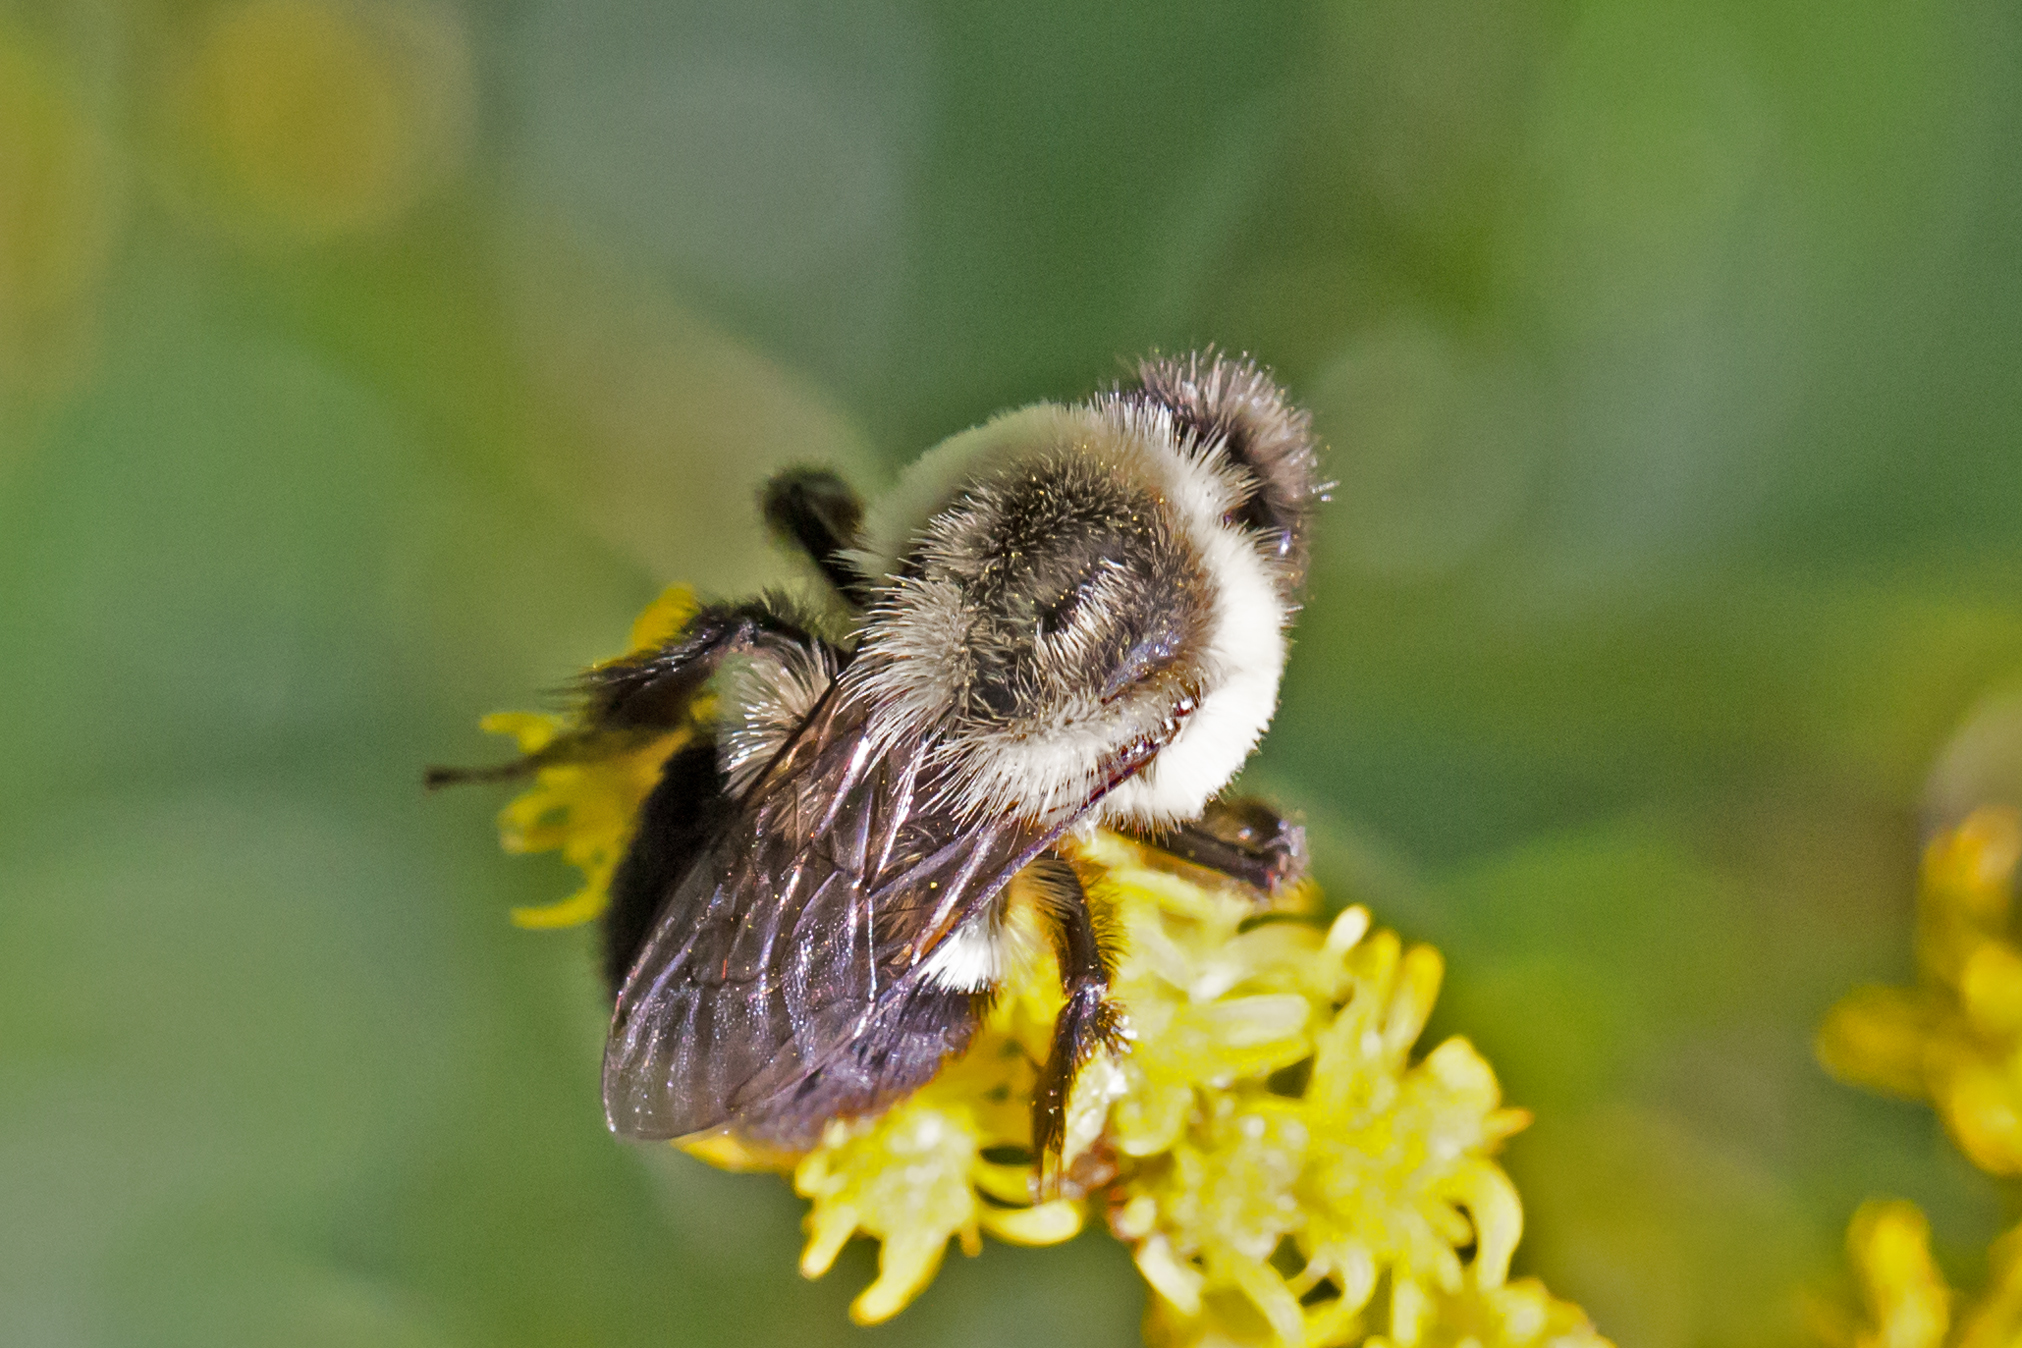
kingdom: Animalia
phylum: Arthropoda
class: Insecta
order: Hymenoptera
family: Apidae
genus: Bombus
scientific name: Bombus impatiens
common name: Common eastern bumble bee
